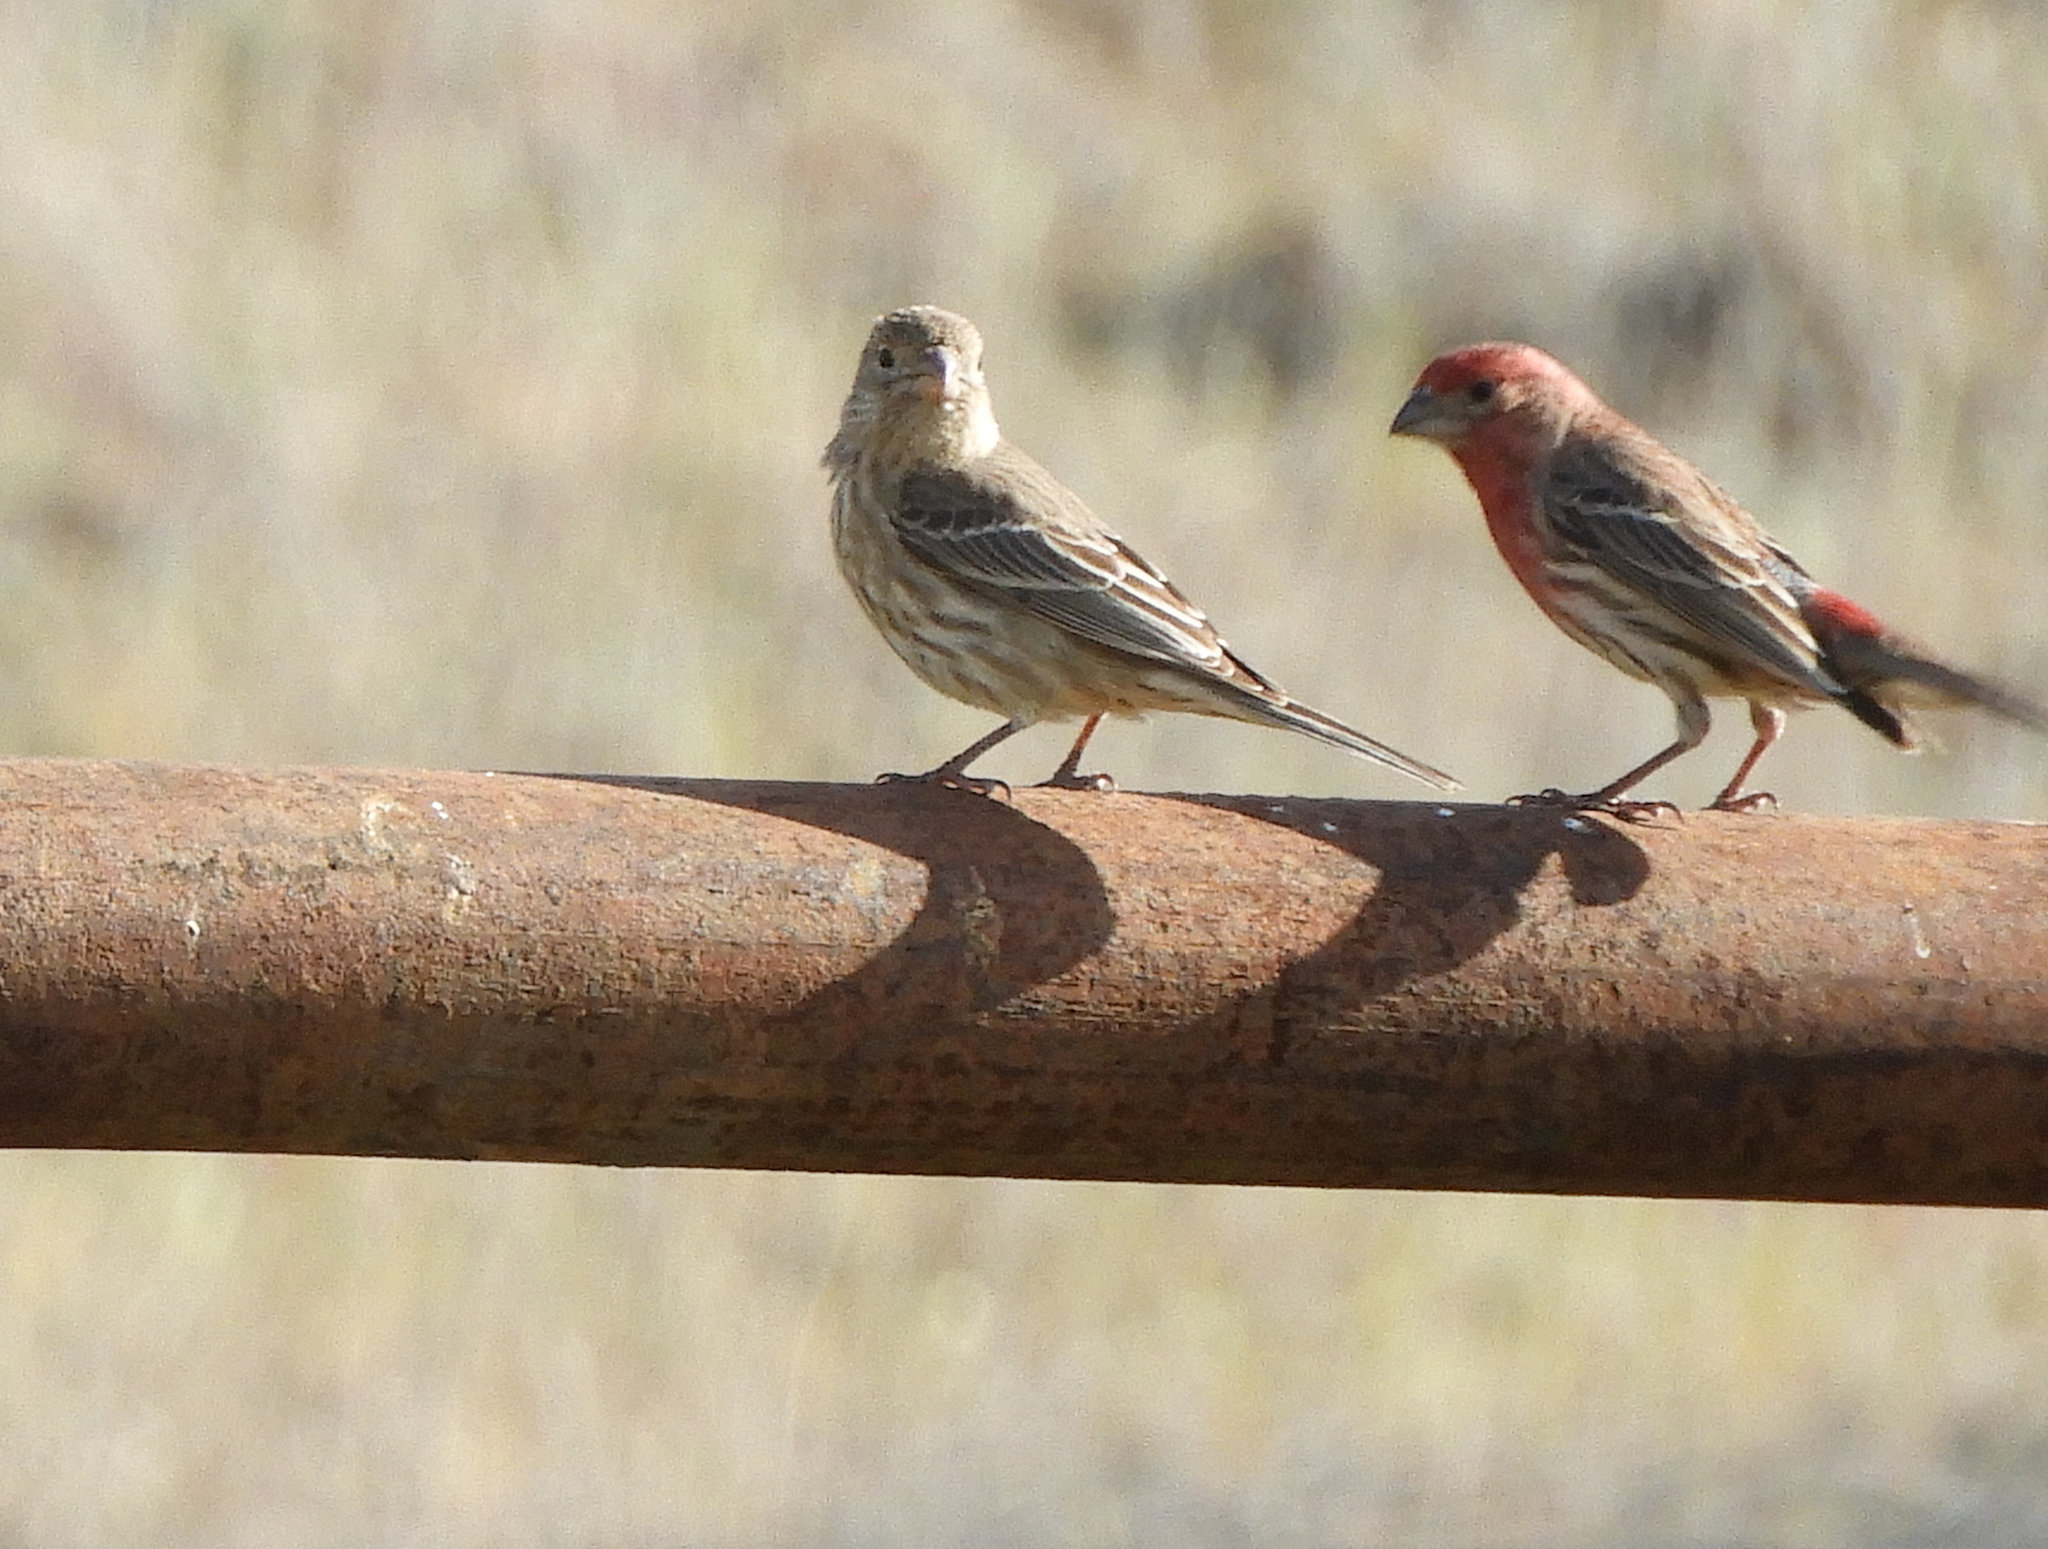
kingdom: Animalia
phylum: Chordata
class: Aves
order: Passeriformes
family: Fringillidae
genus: Haemorhous
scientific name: Haemorhous mexicanus
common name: House finch
